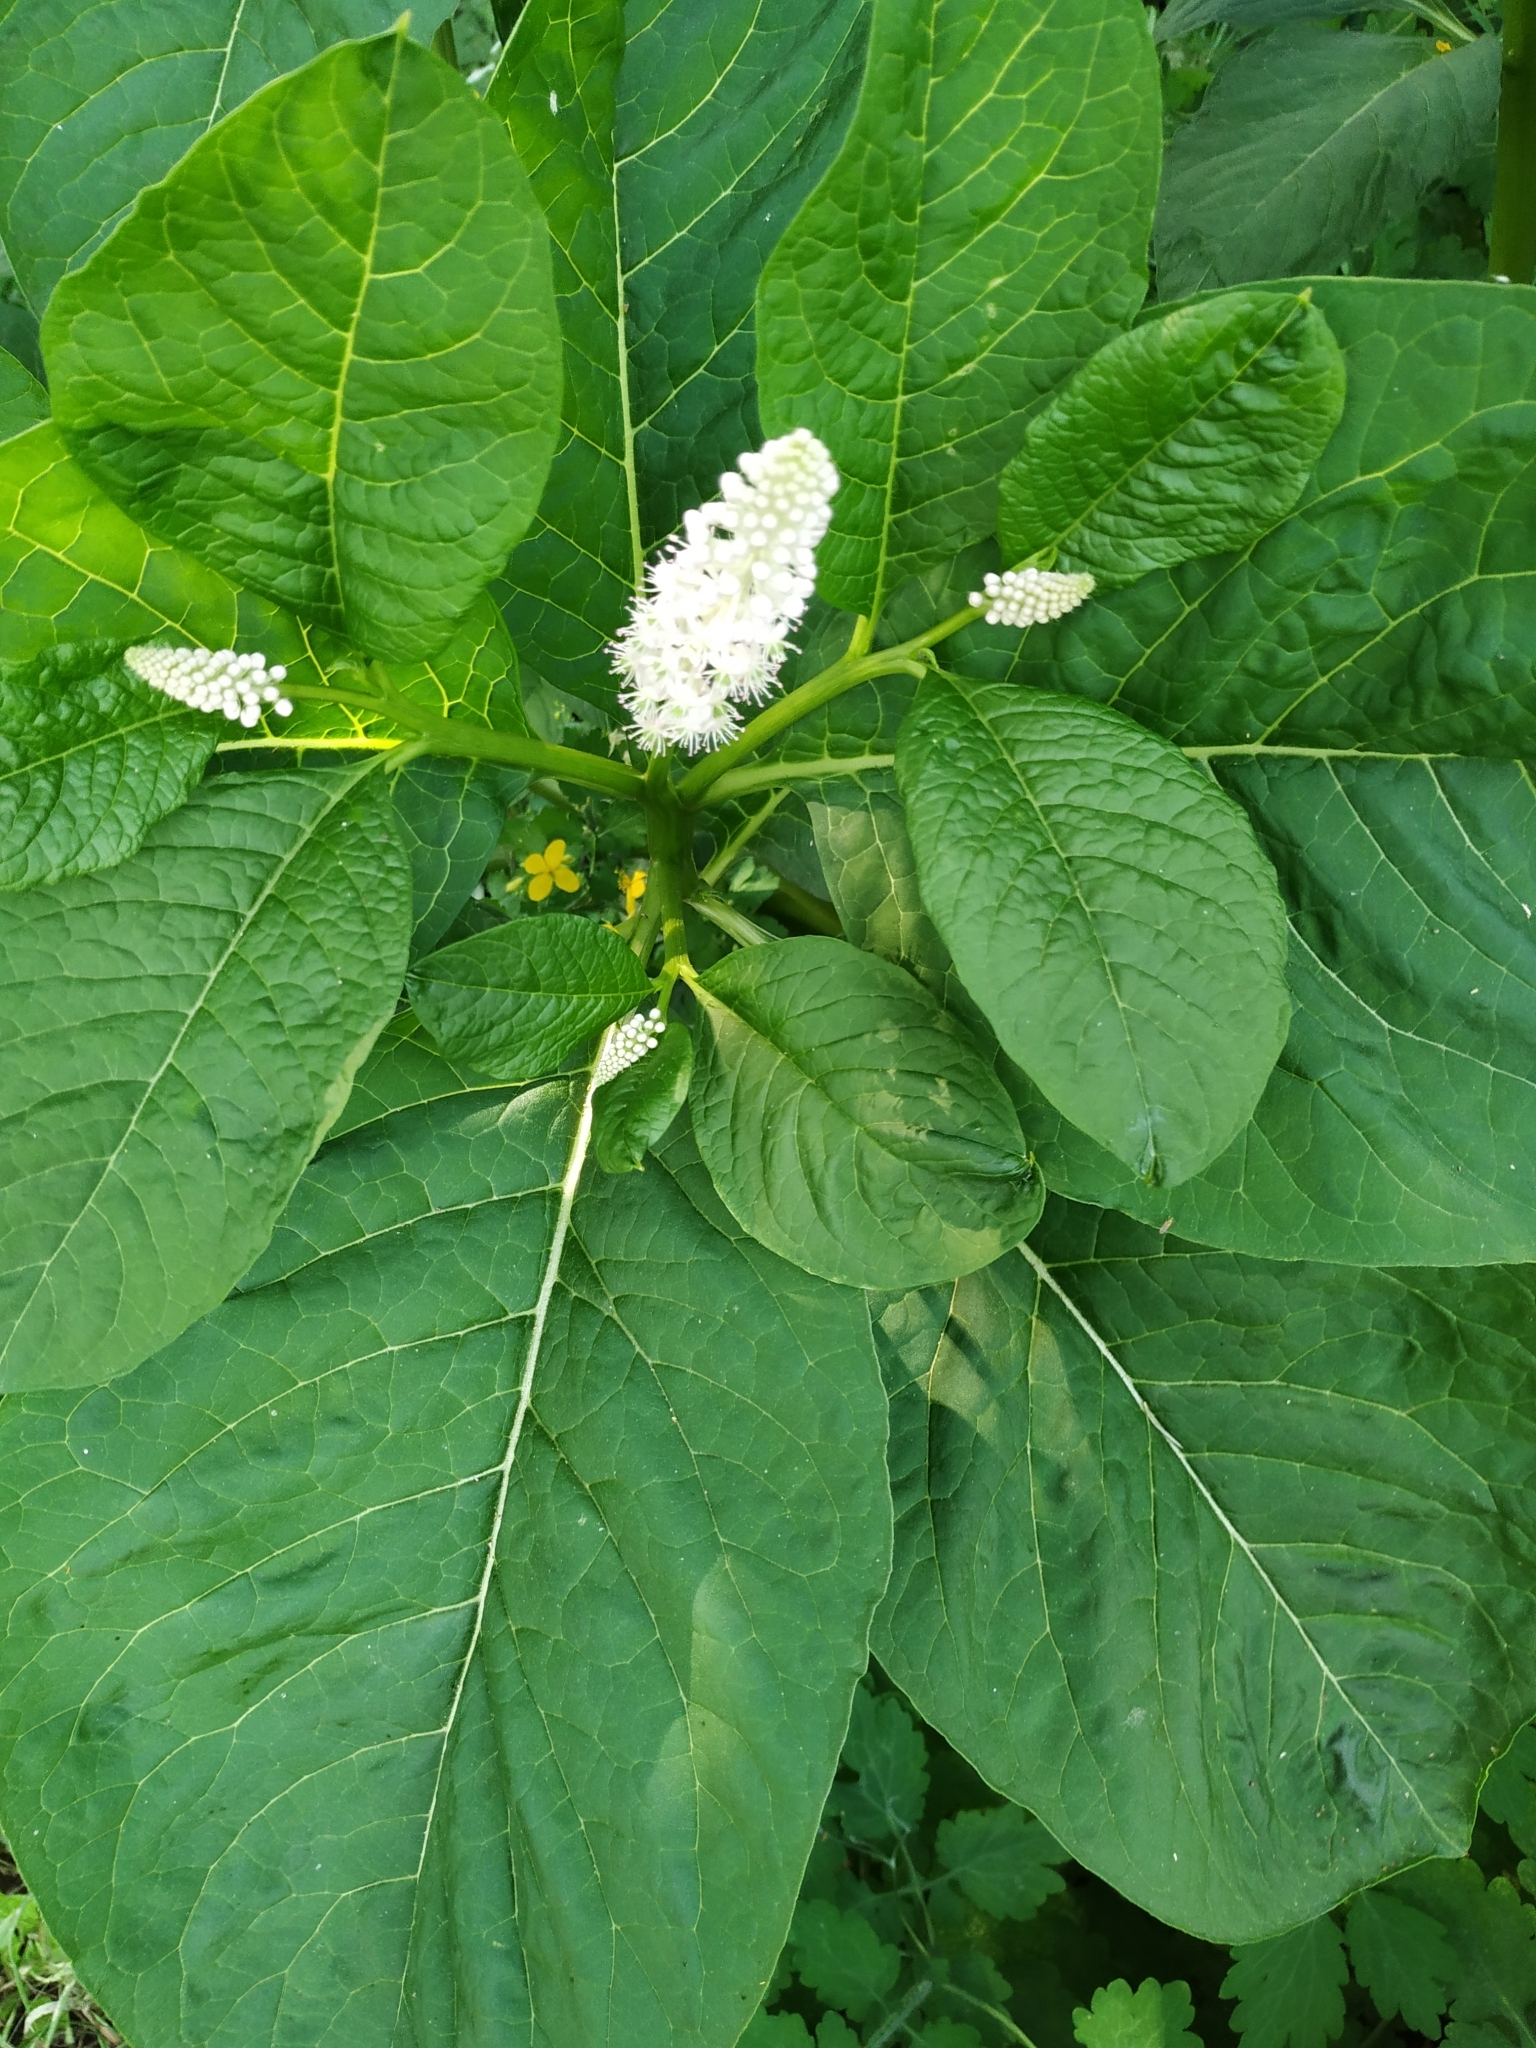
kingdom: Plantae
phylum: Tracheophyta
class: Magnoliopsida
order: Caryophyllales
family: Phytolaccaceae
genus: Phytolacca
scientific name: Phytolacca acinosa
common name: Indian pokeweed
